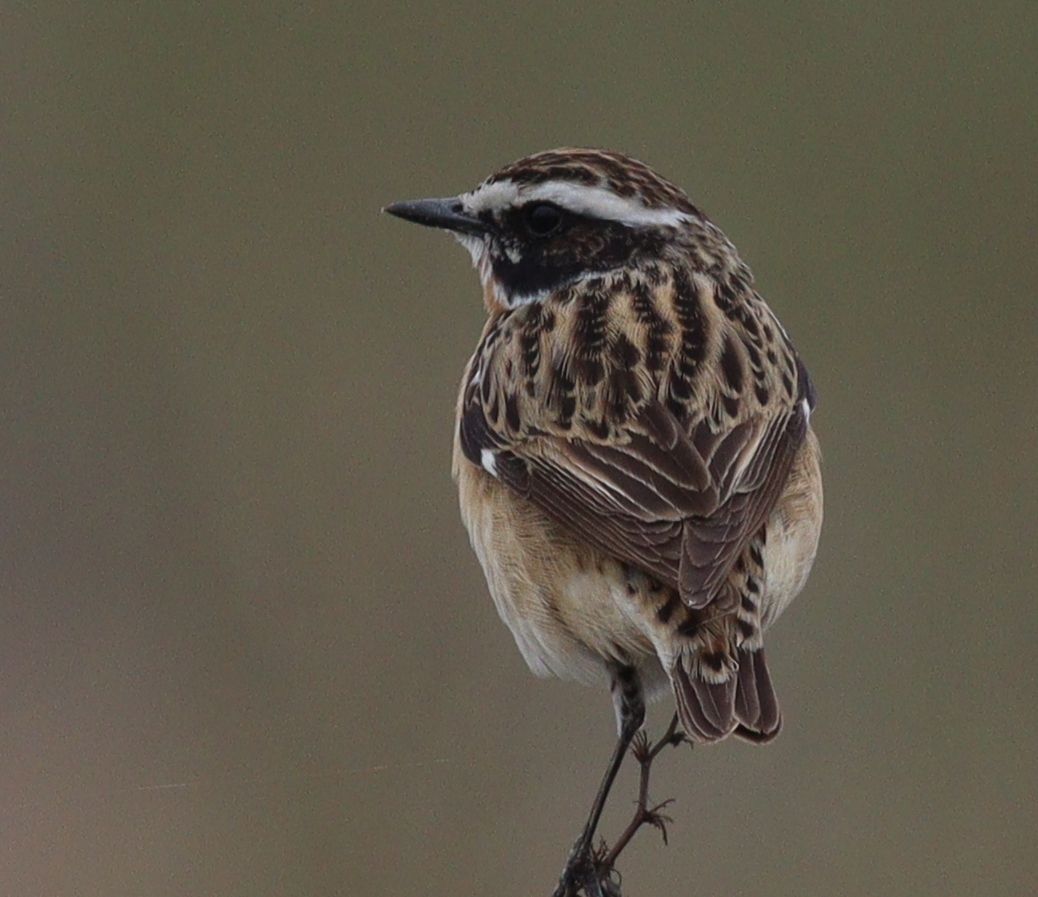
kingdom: Animalia
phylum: Chordata
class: Aves
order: Passeriformes
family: Muscicapidae
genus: Saxicola
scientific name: Saxicola rubetra
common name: Whinchat
